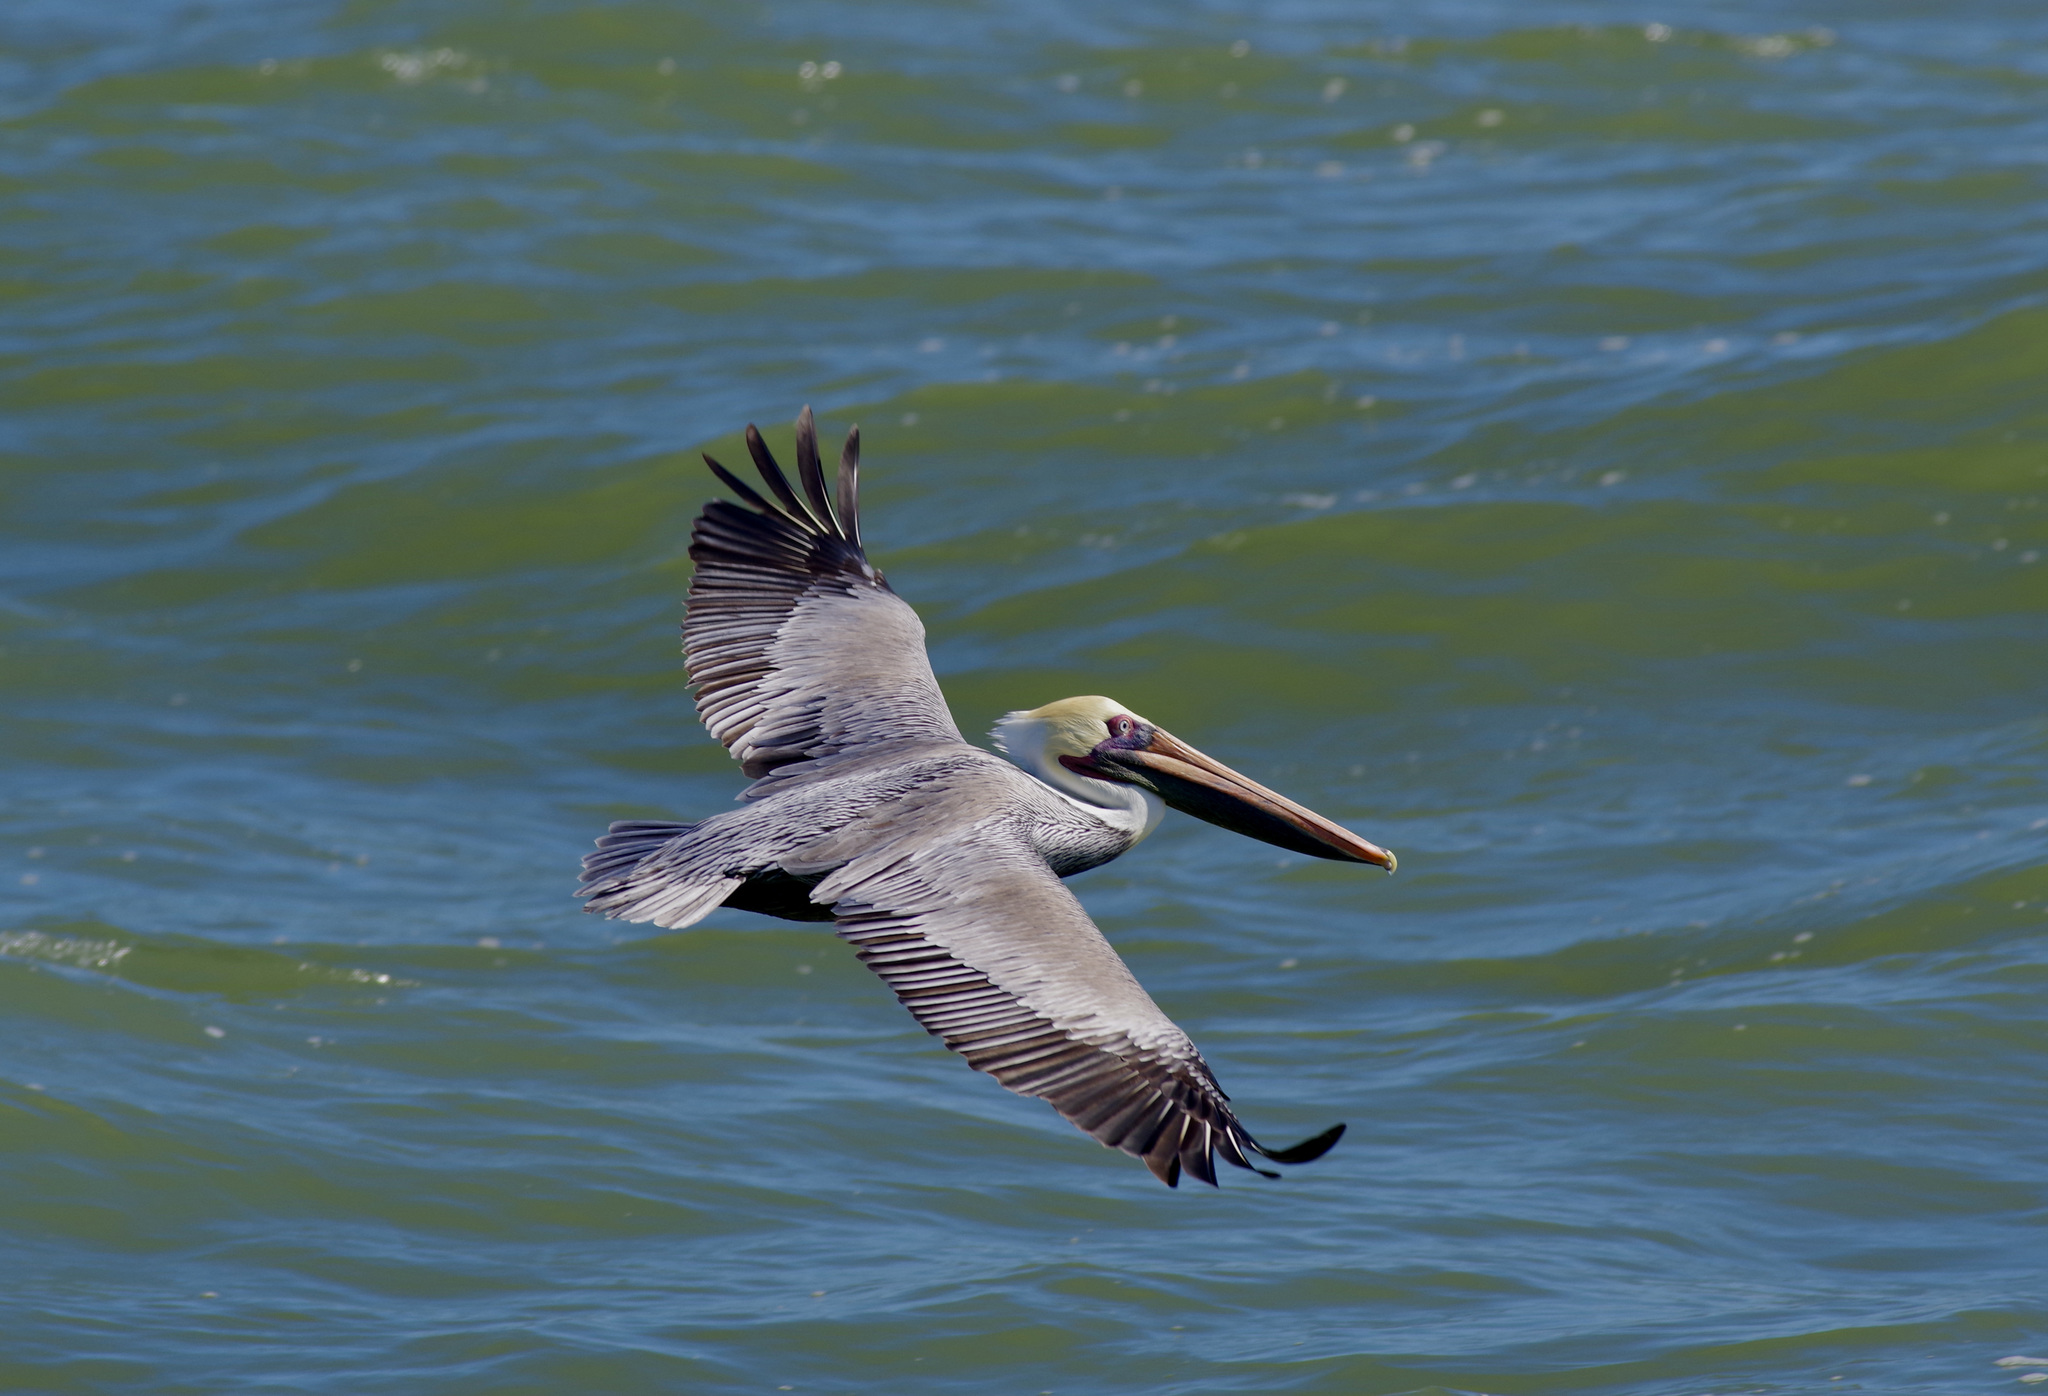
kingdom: Animalia
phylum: Chordata
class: Aves
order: Pelecaniformes
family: Pelecanidae
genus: Pelecanus
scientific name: Pelecanus occidentalis
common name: Brown pelican
